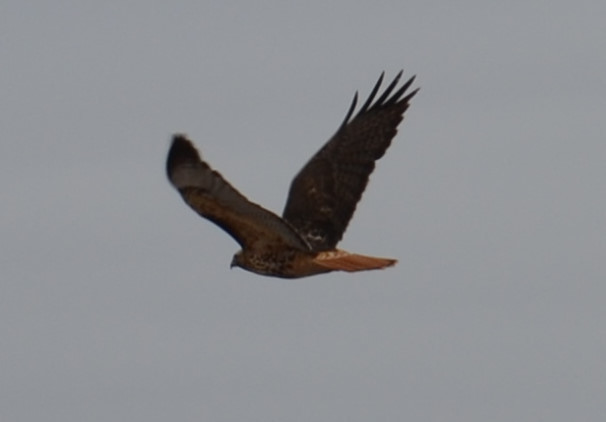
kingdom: Animalia
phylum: Chordata
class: Aves
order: Accipitriformes
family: Accipitridae
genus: Buteo
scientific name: Buteo jamaicensis
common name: Red-tailed hawk
